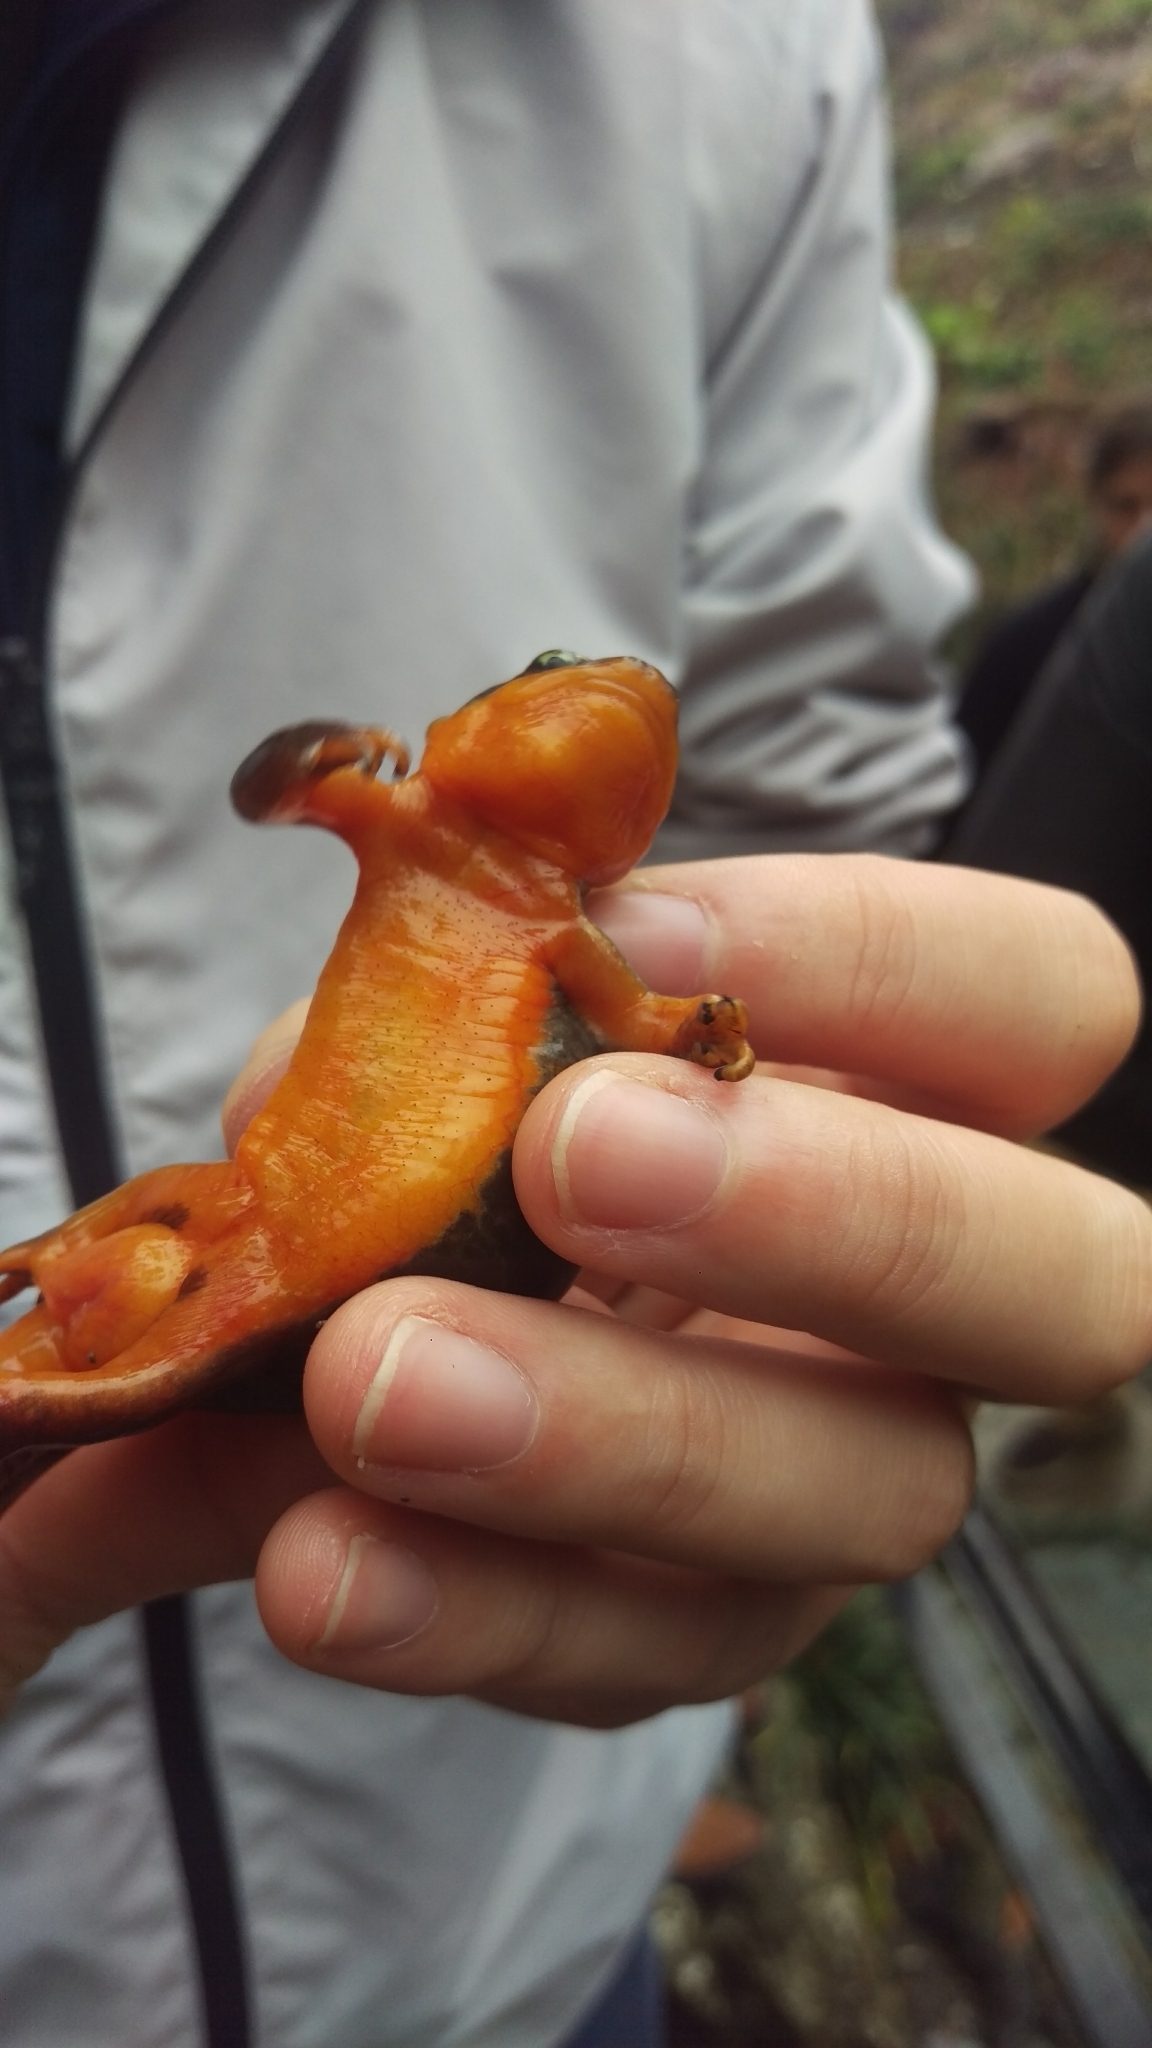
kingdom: Animalia
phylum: Chordata
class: Amphibia
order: Caudata
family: Salamandridae
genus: Taricha
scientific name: Taricha torosa
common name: California newt
